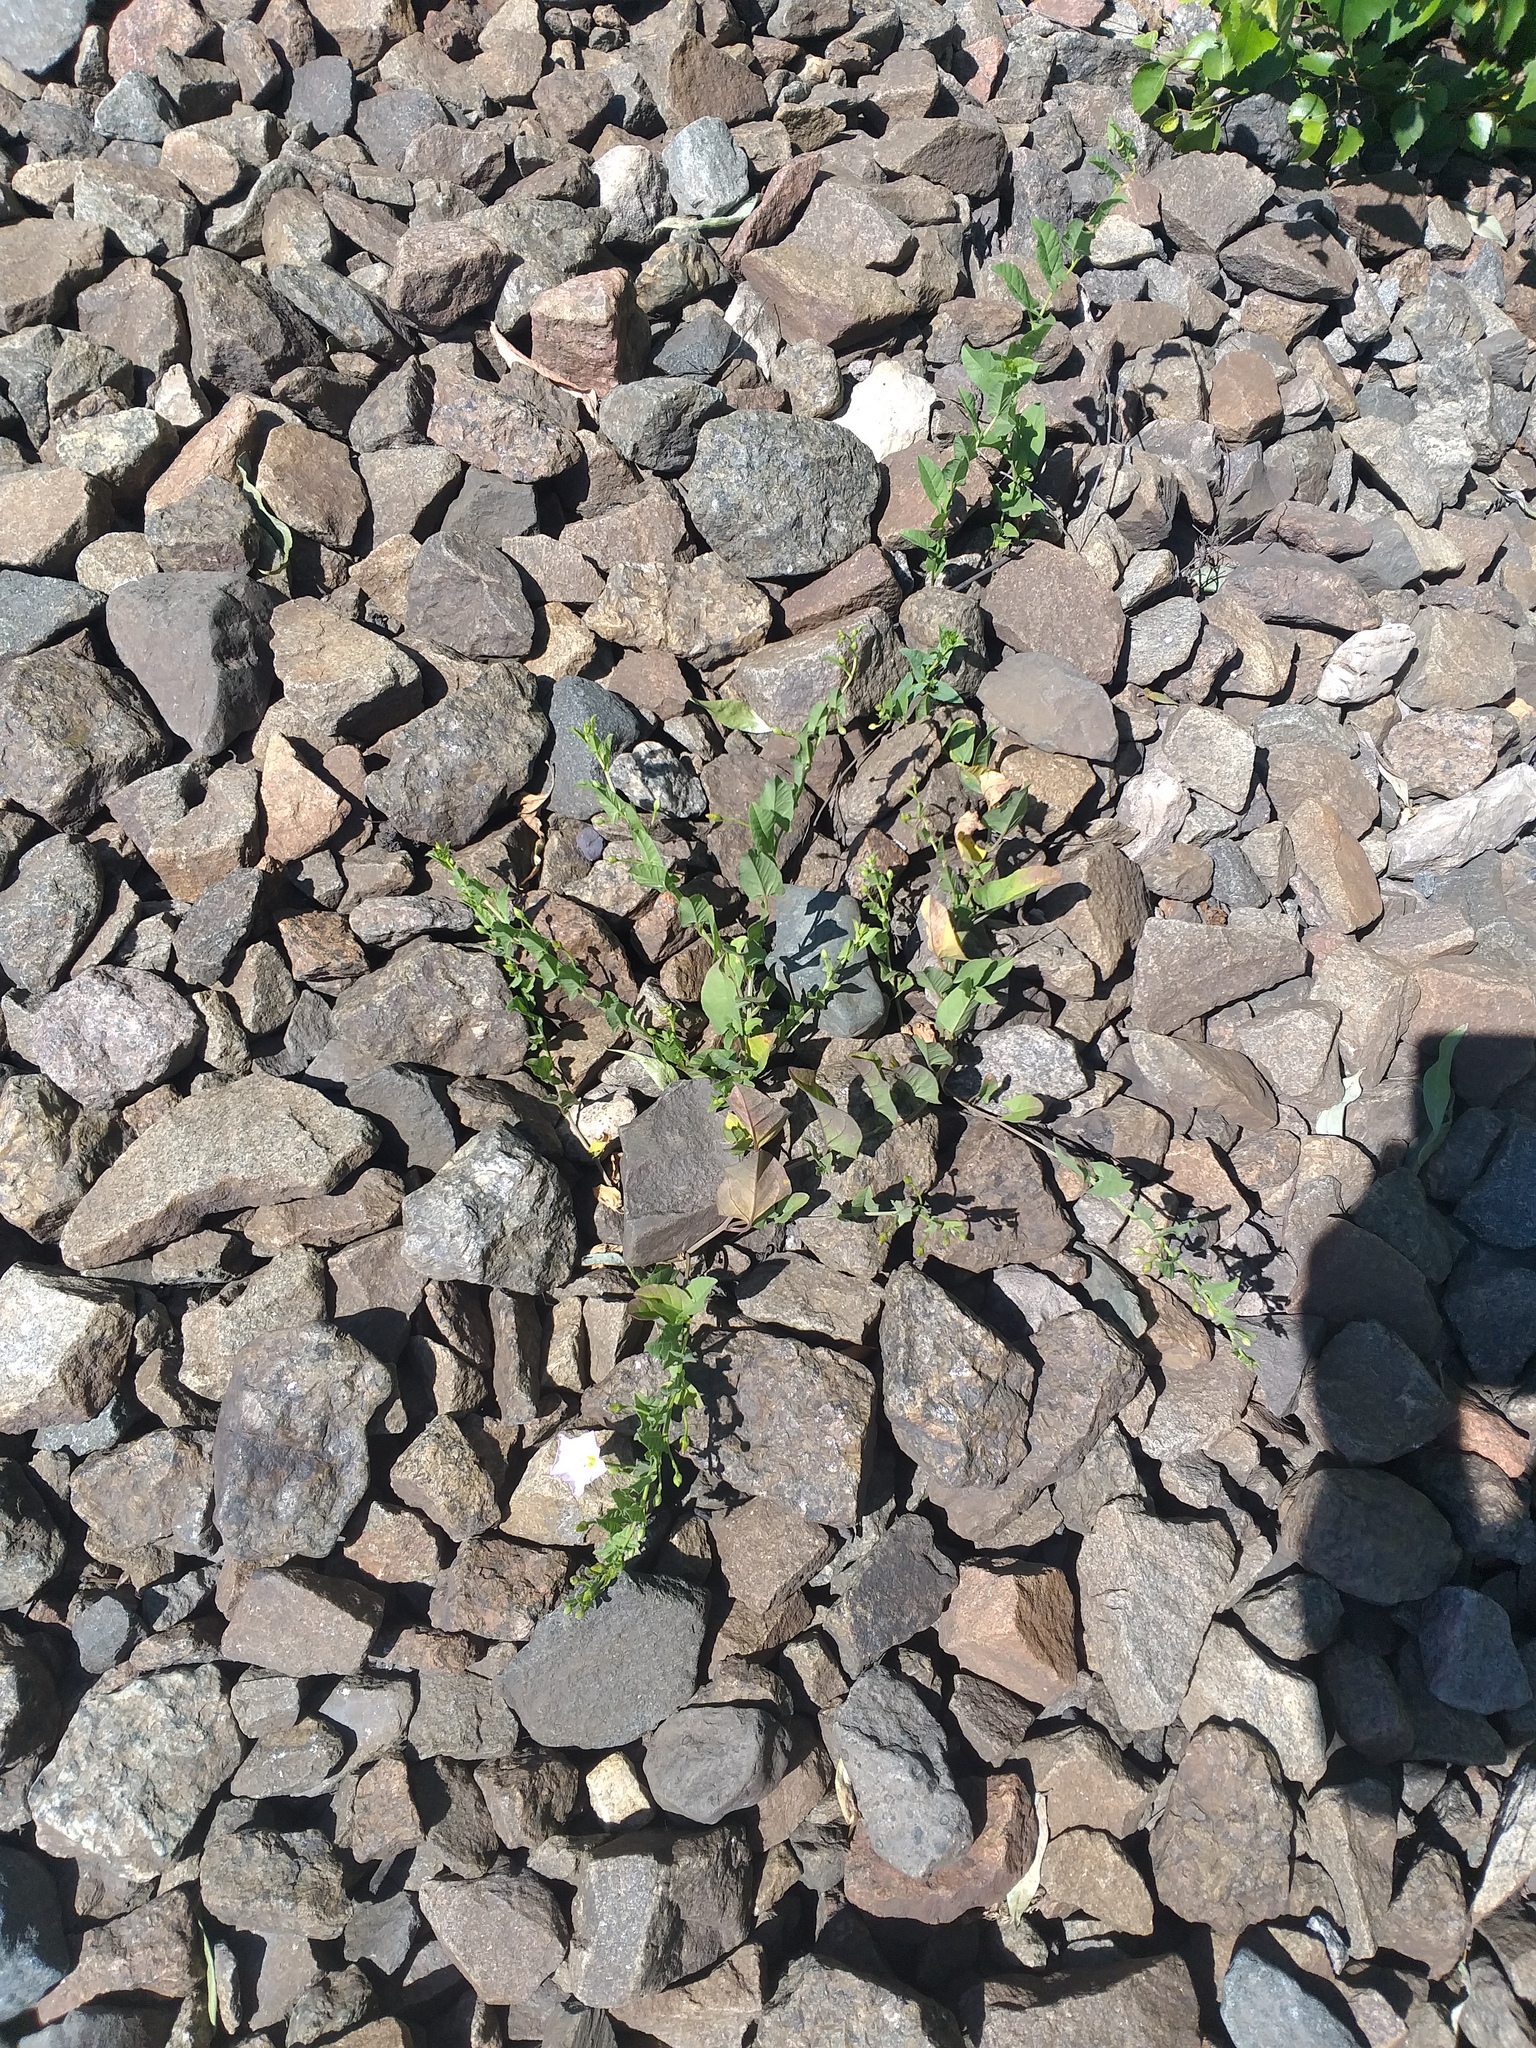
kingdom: Plantae
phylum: Tracheophyta
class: Magnoliopsida
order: Solanales
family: Convolvulaceae
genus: Convolvulus
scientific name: Convolvulus arvensis
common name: Field bindweed
